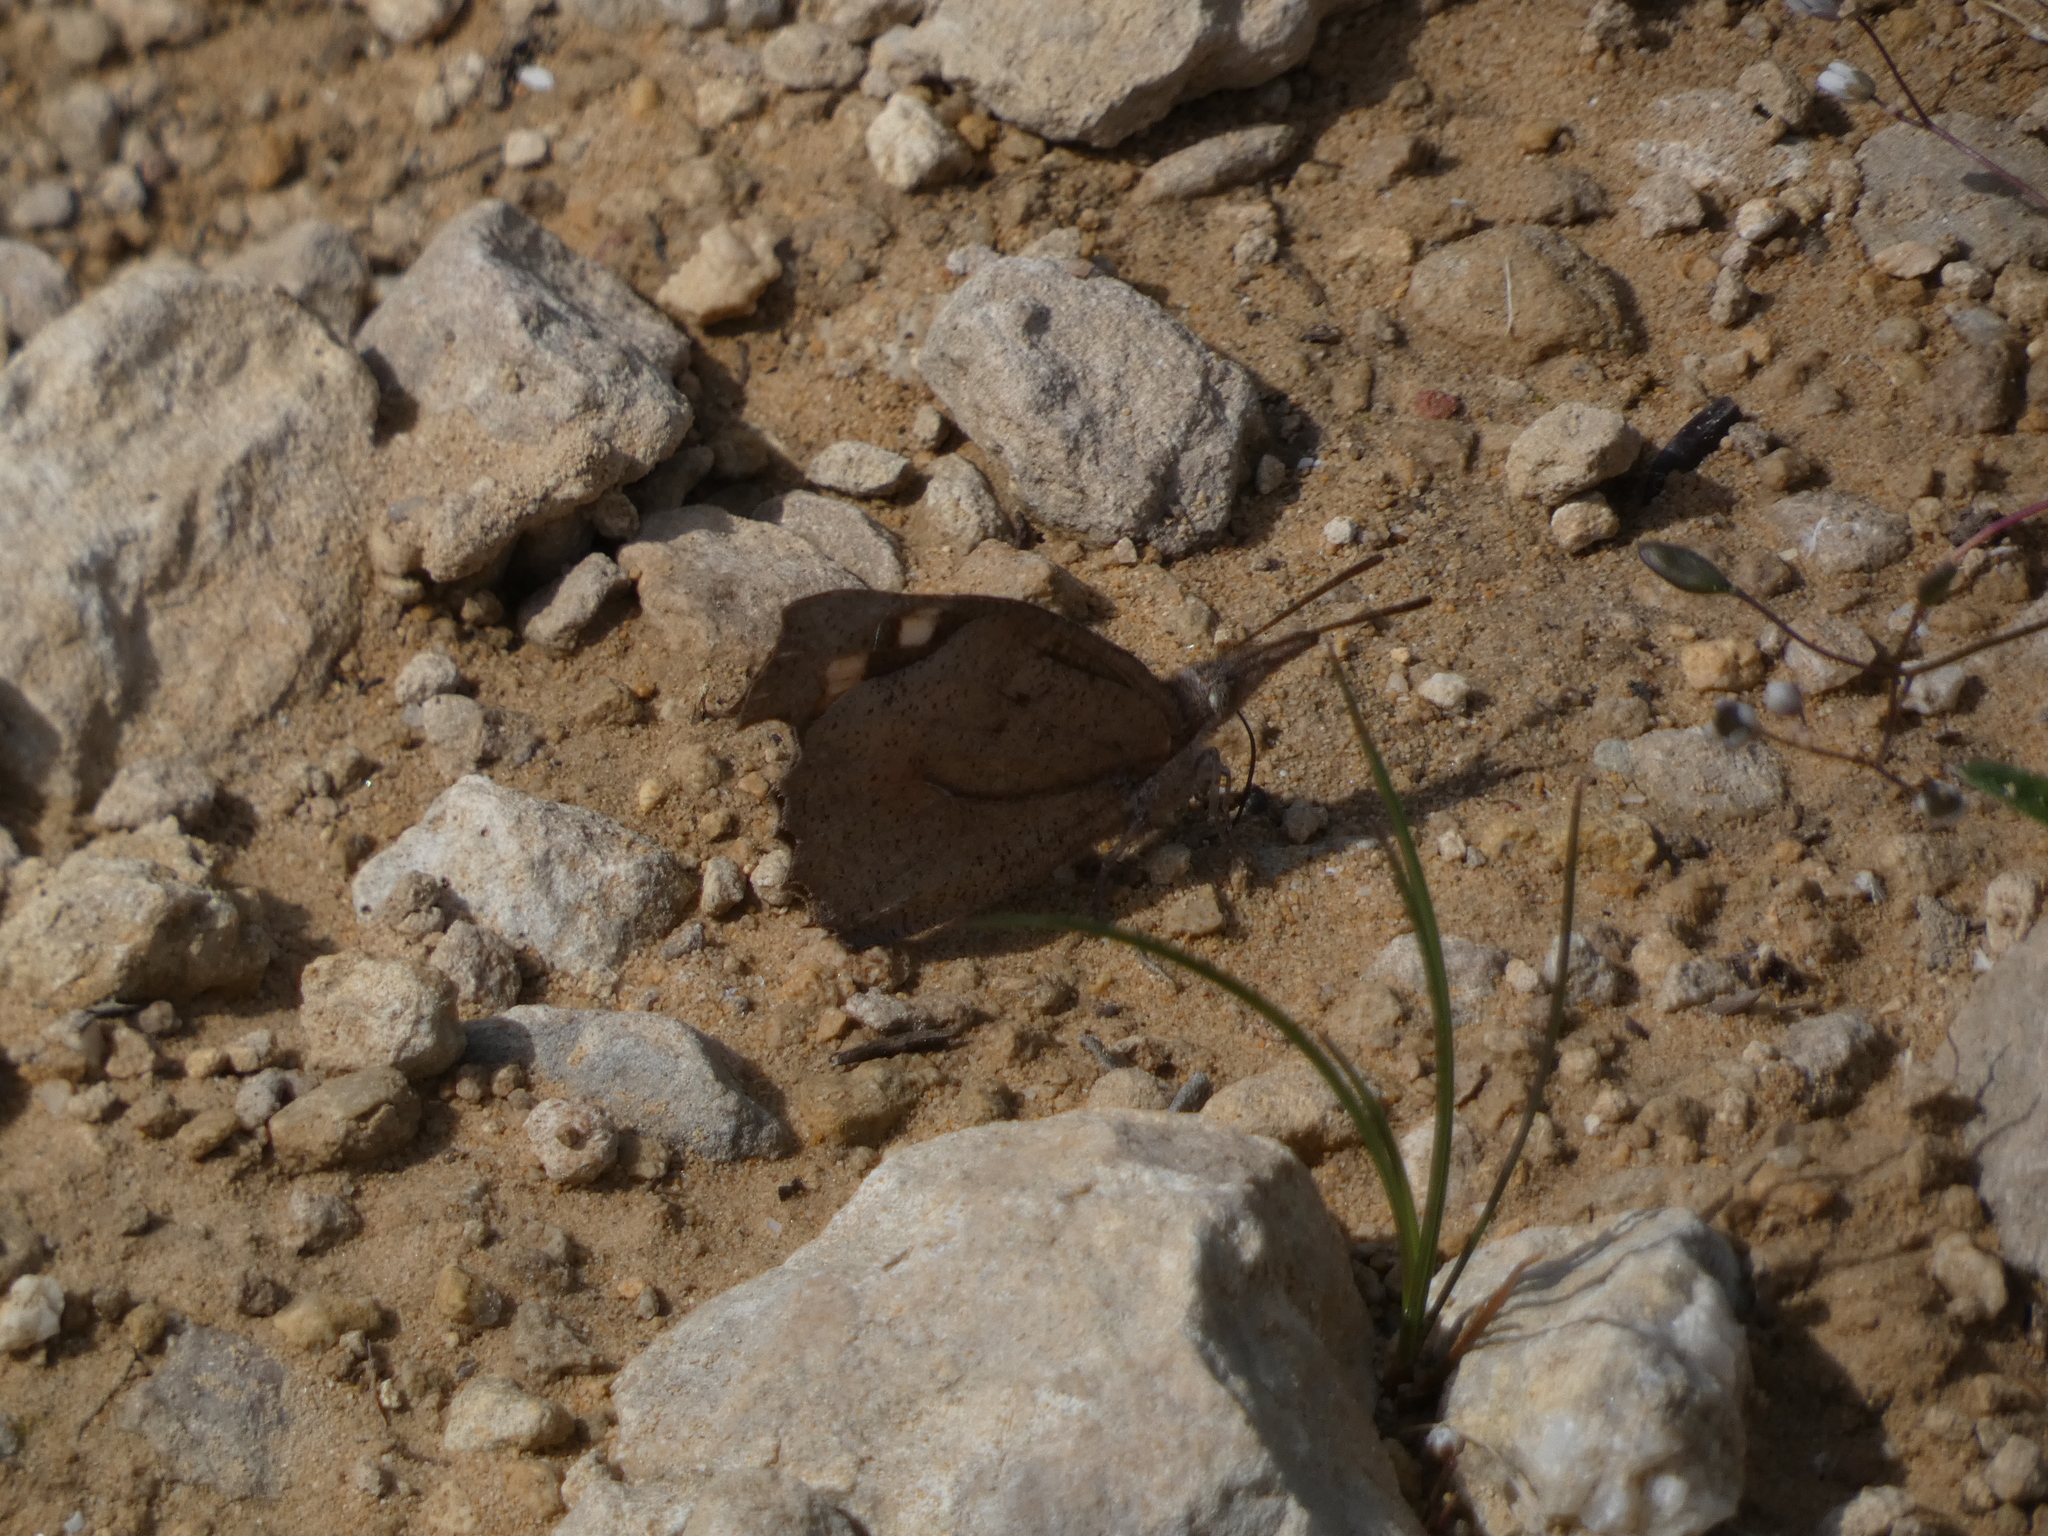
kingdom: Animalia
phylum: Arthropoda
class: Insecta
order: Lepidoptera
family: Nymphalidae
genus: Libythea
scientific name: Libythea celtis
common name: Nettle-tree butterfly
